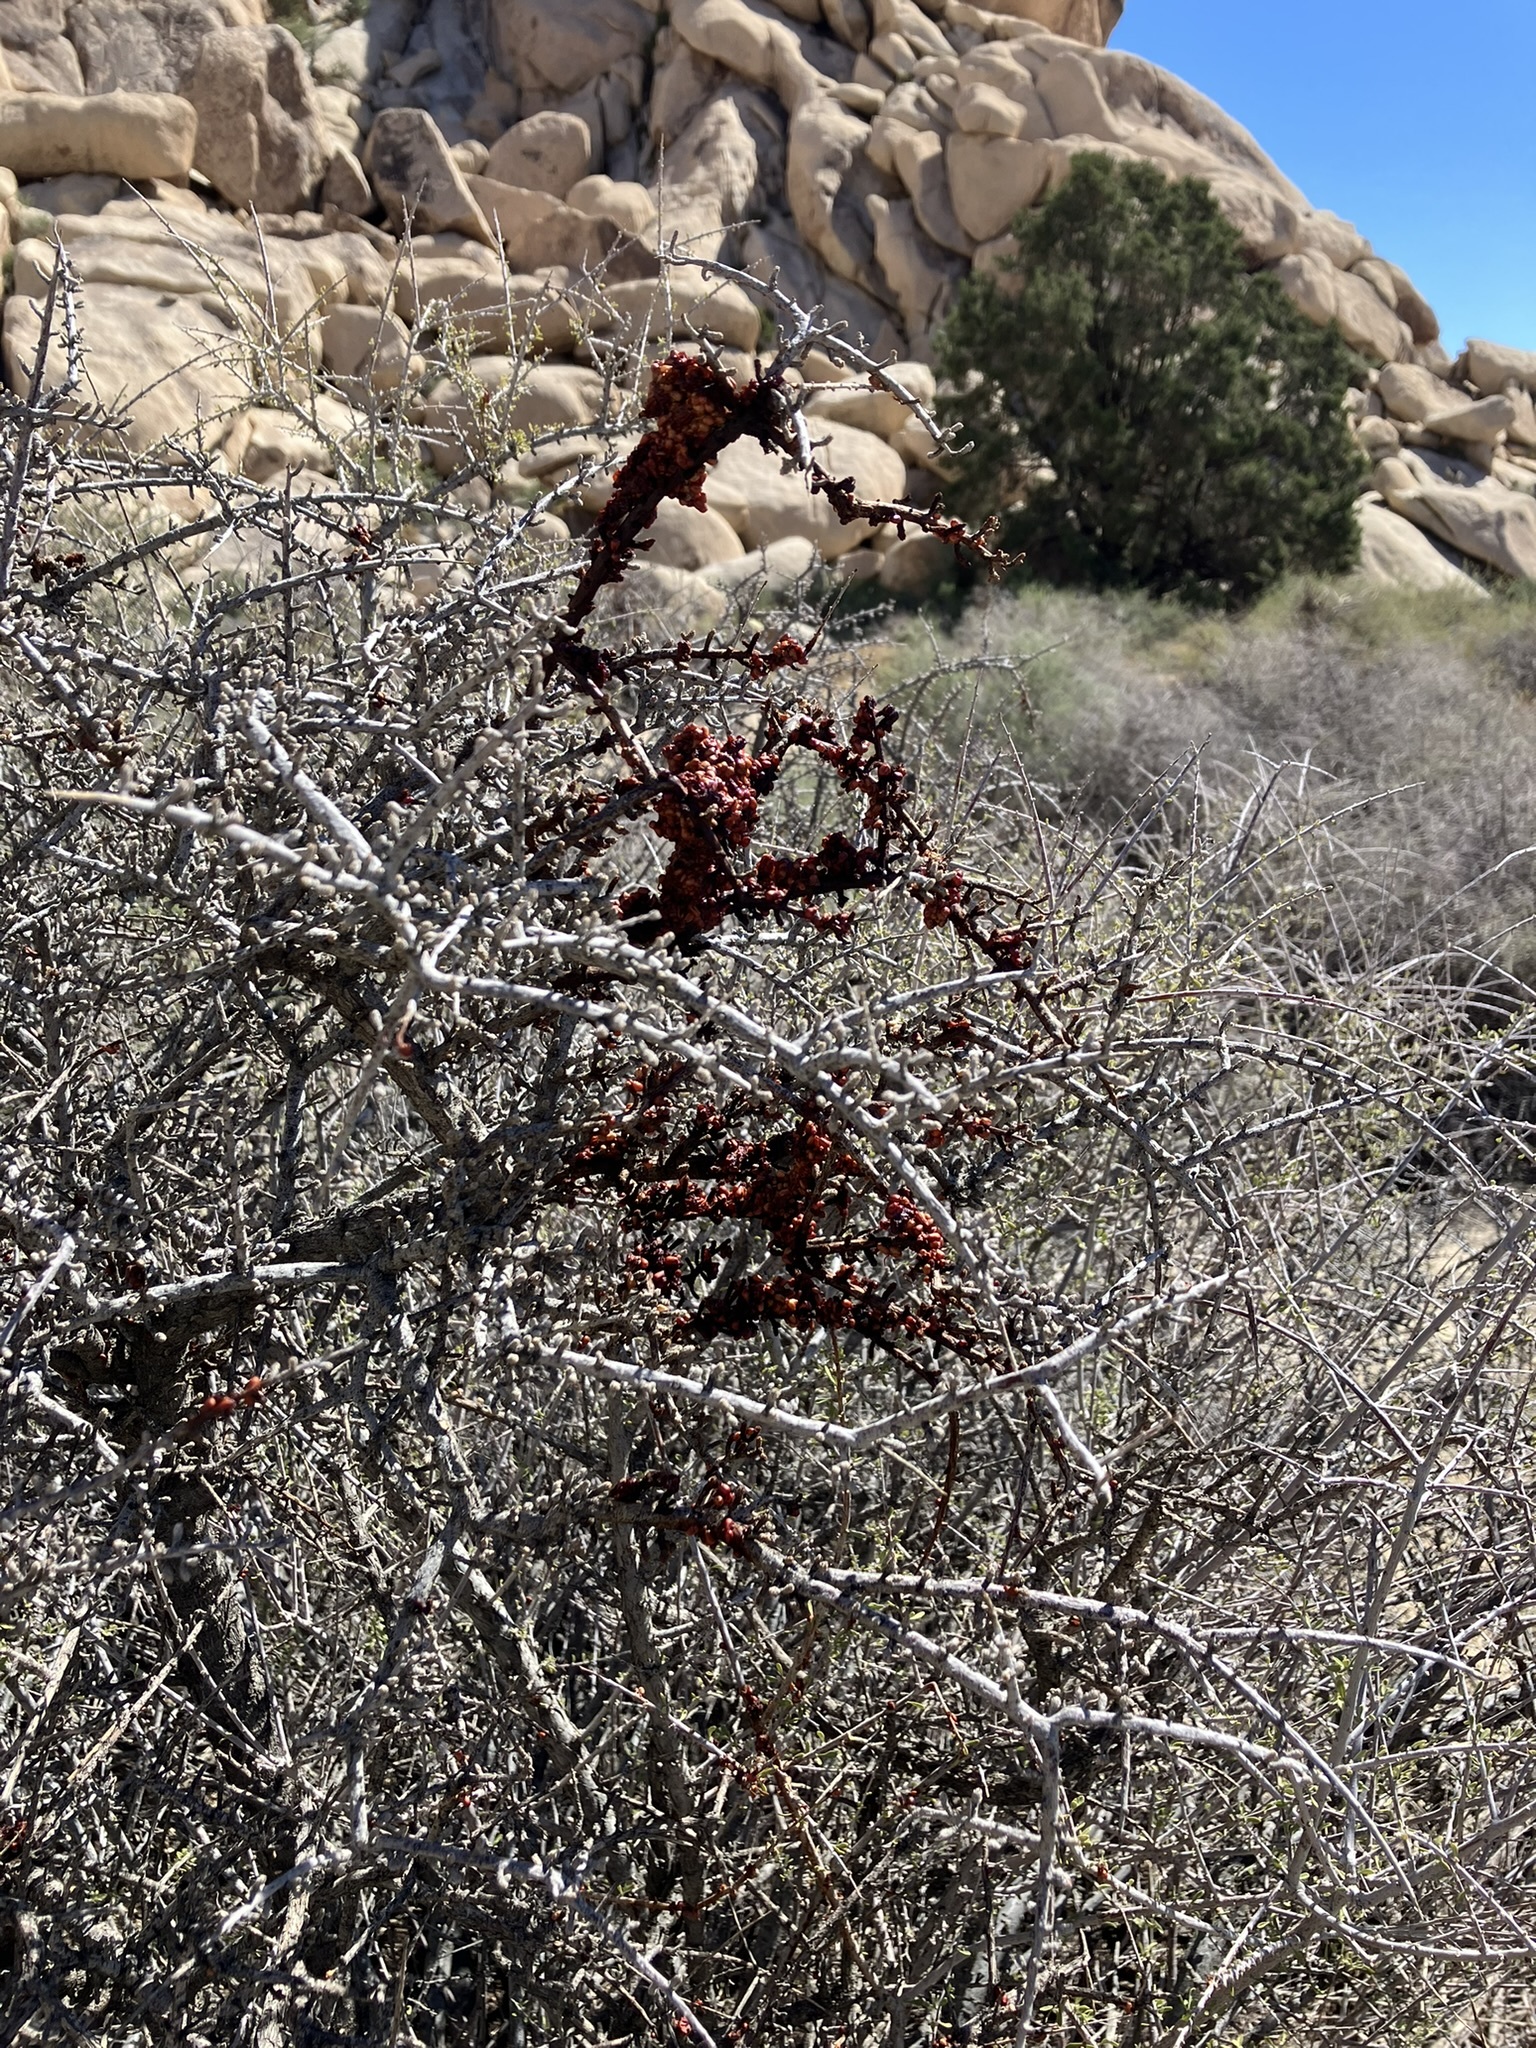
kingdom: Animalia
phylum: Chordata
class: Aves
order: Passeriformes
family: Ptilogonatidae
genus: Phainopepla
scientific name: Phainopepla nitens
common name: Phainopepla
